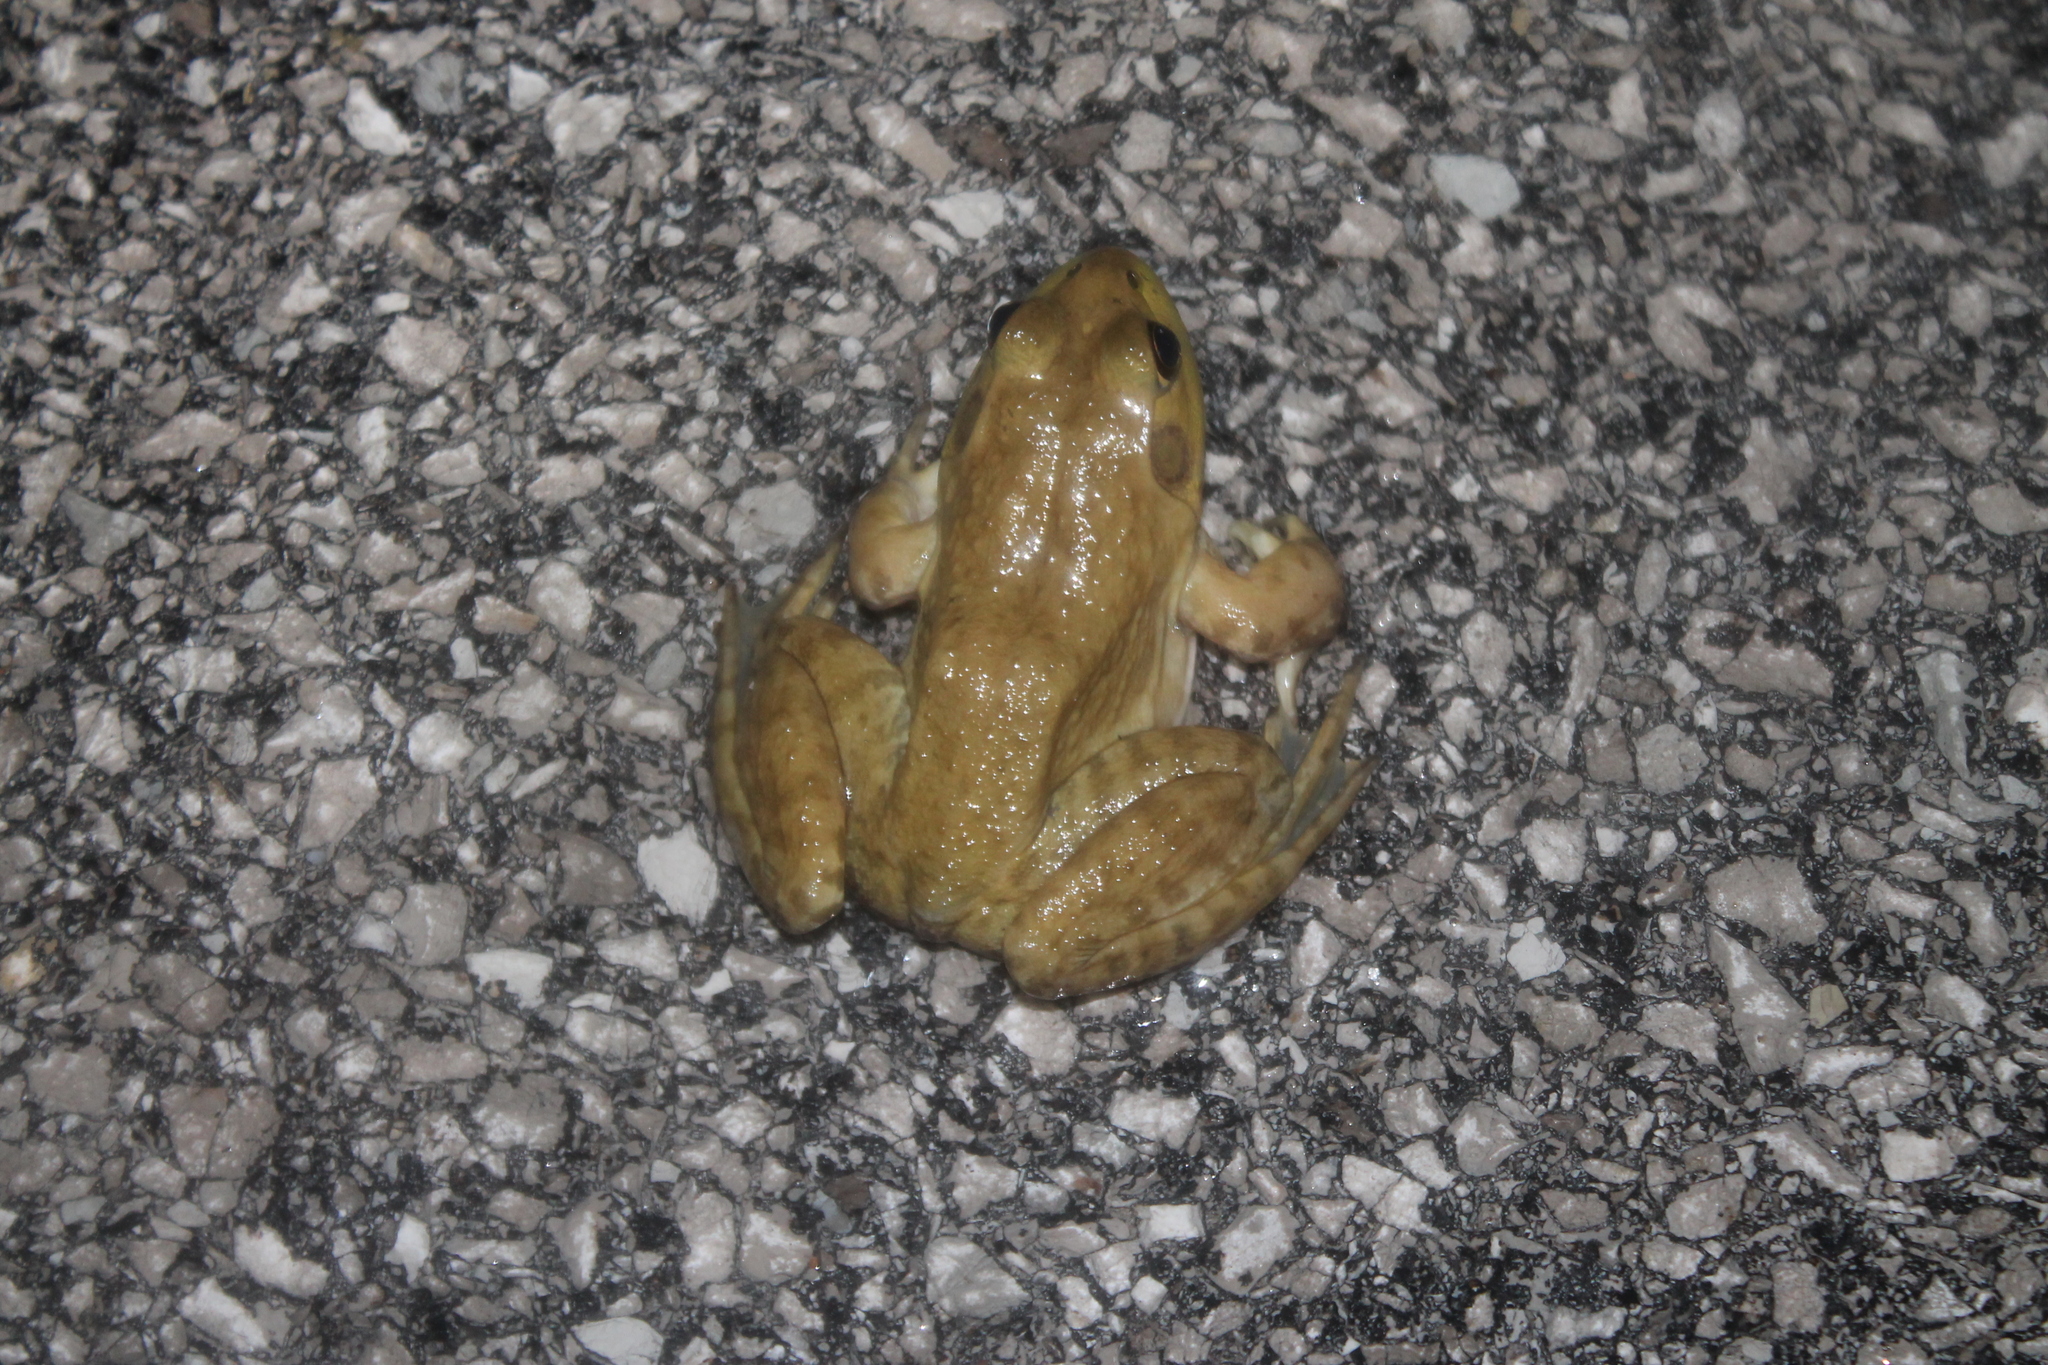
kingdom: Animalia
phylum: Chordata
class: Amphibia
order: Anura
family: Ranidae
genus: Lithobates
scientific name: Lithobates catesbeianus
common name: American bullfrog
